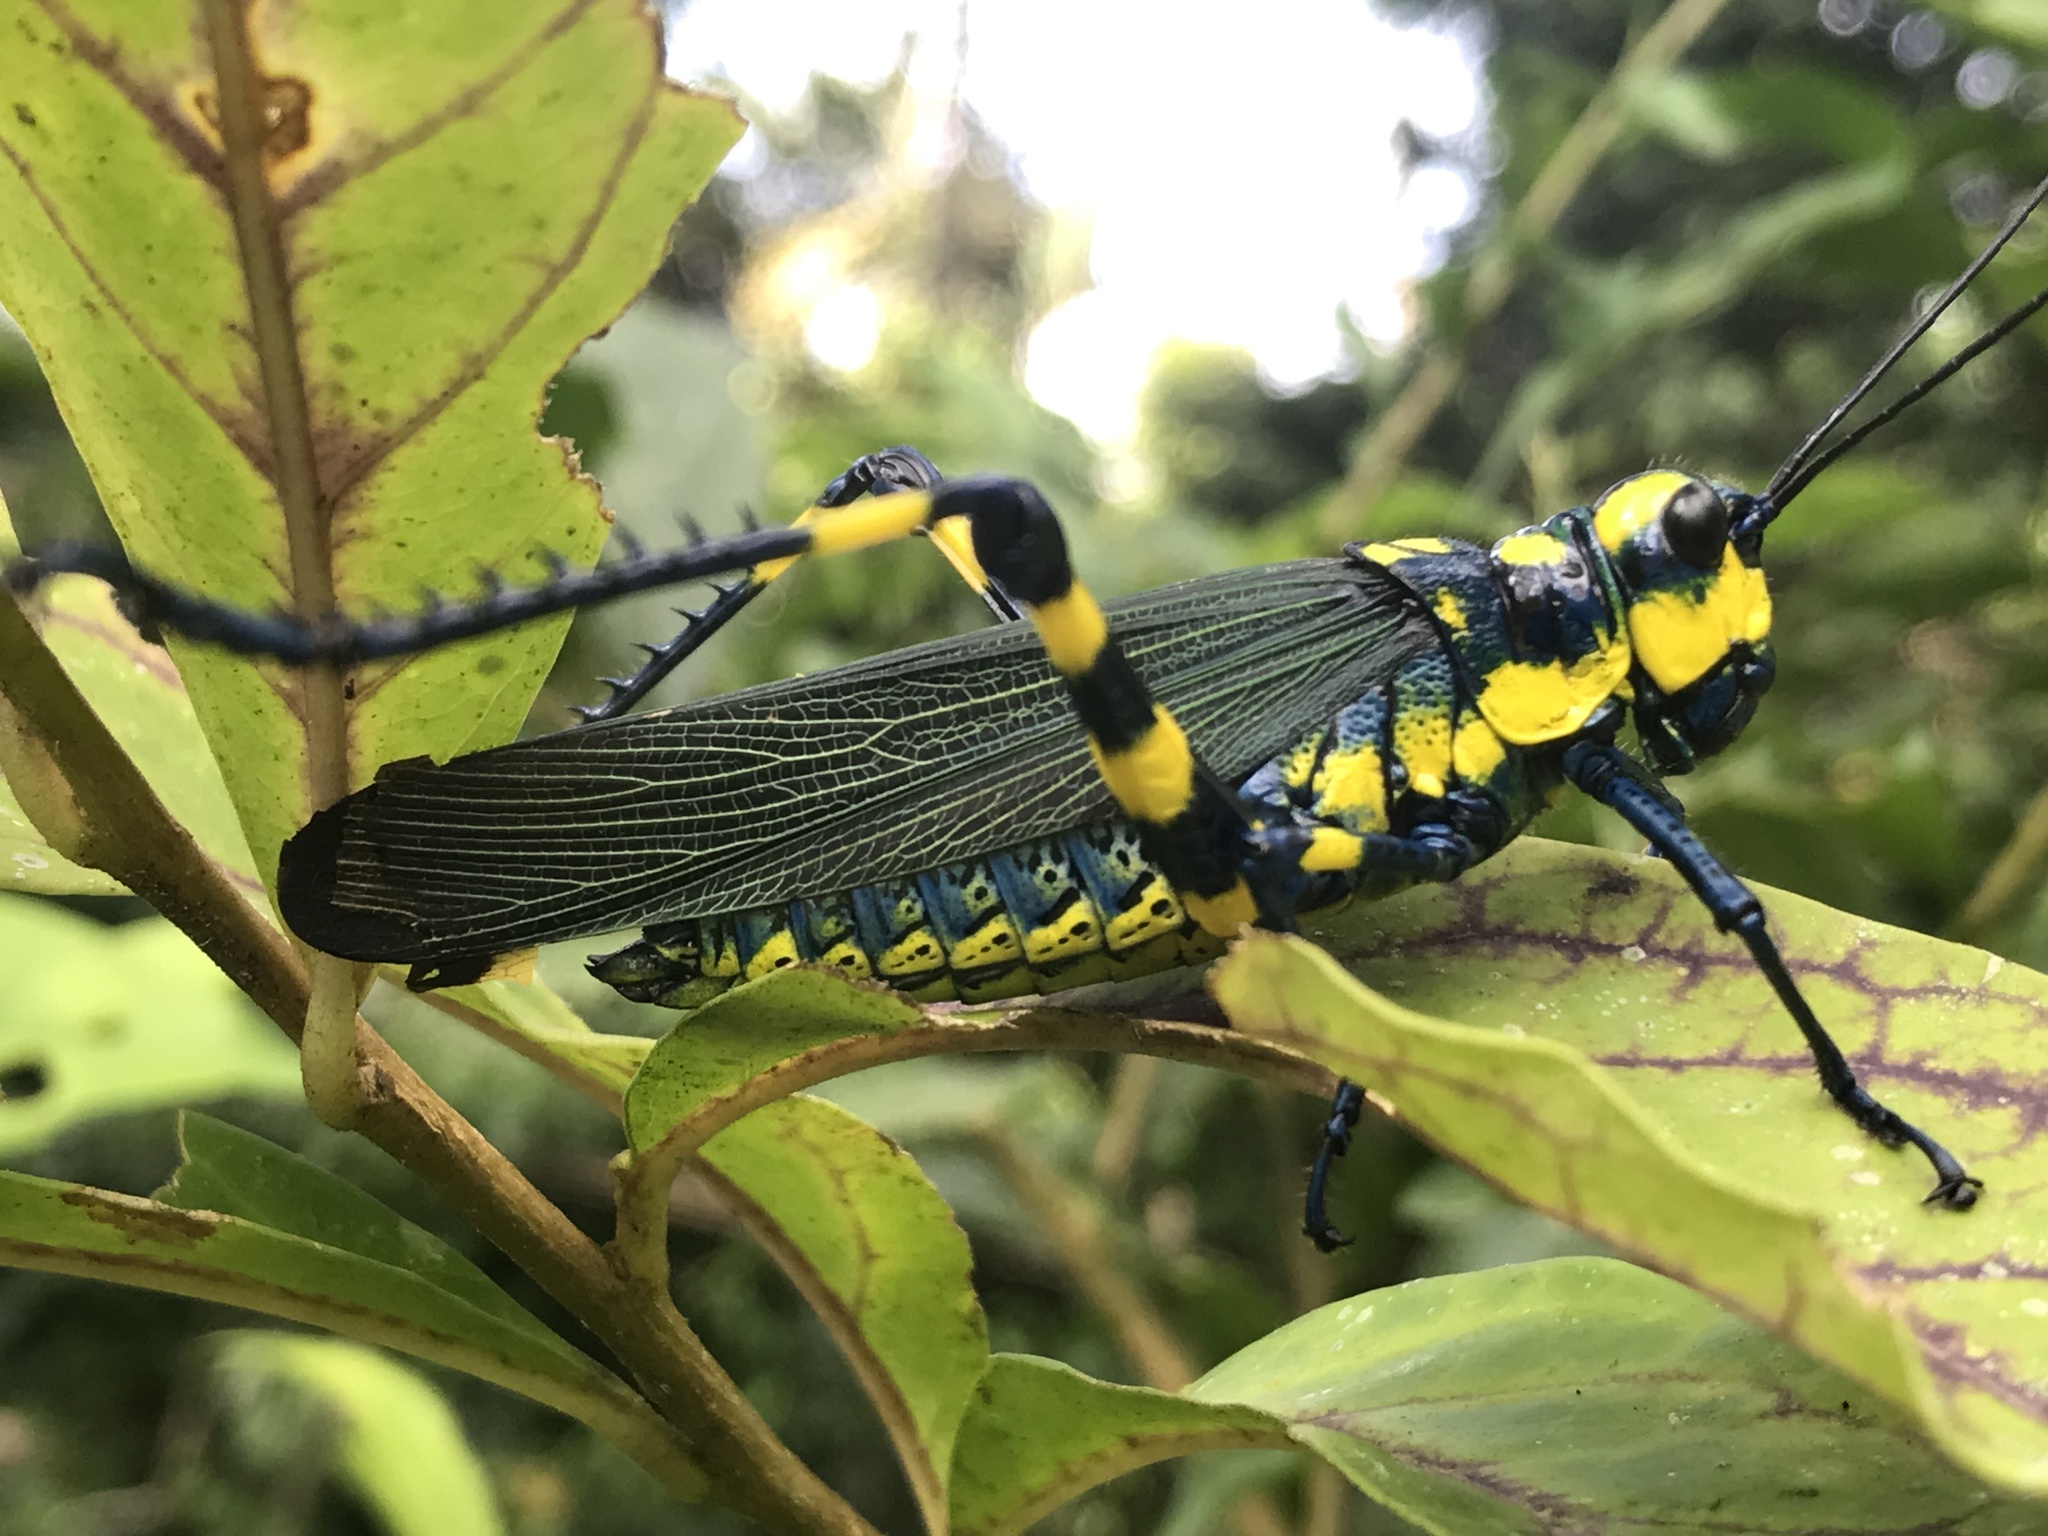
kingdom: Animalia
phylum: Arthropoda
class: Insecta
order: Orthoptera
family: Romaleidae
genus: Chromacris
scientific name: Chromacris icterus
